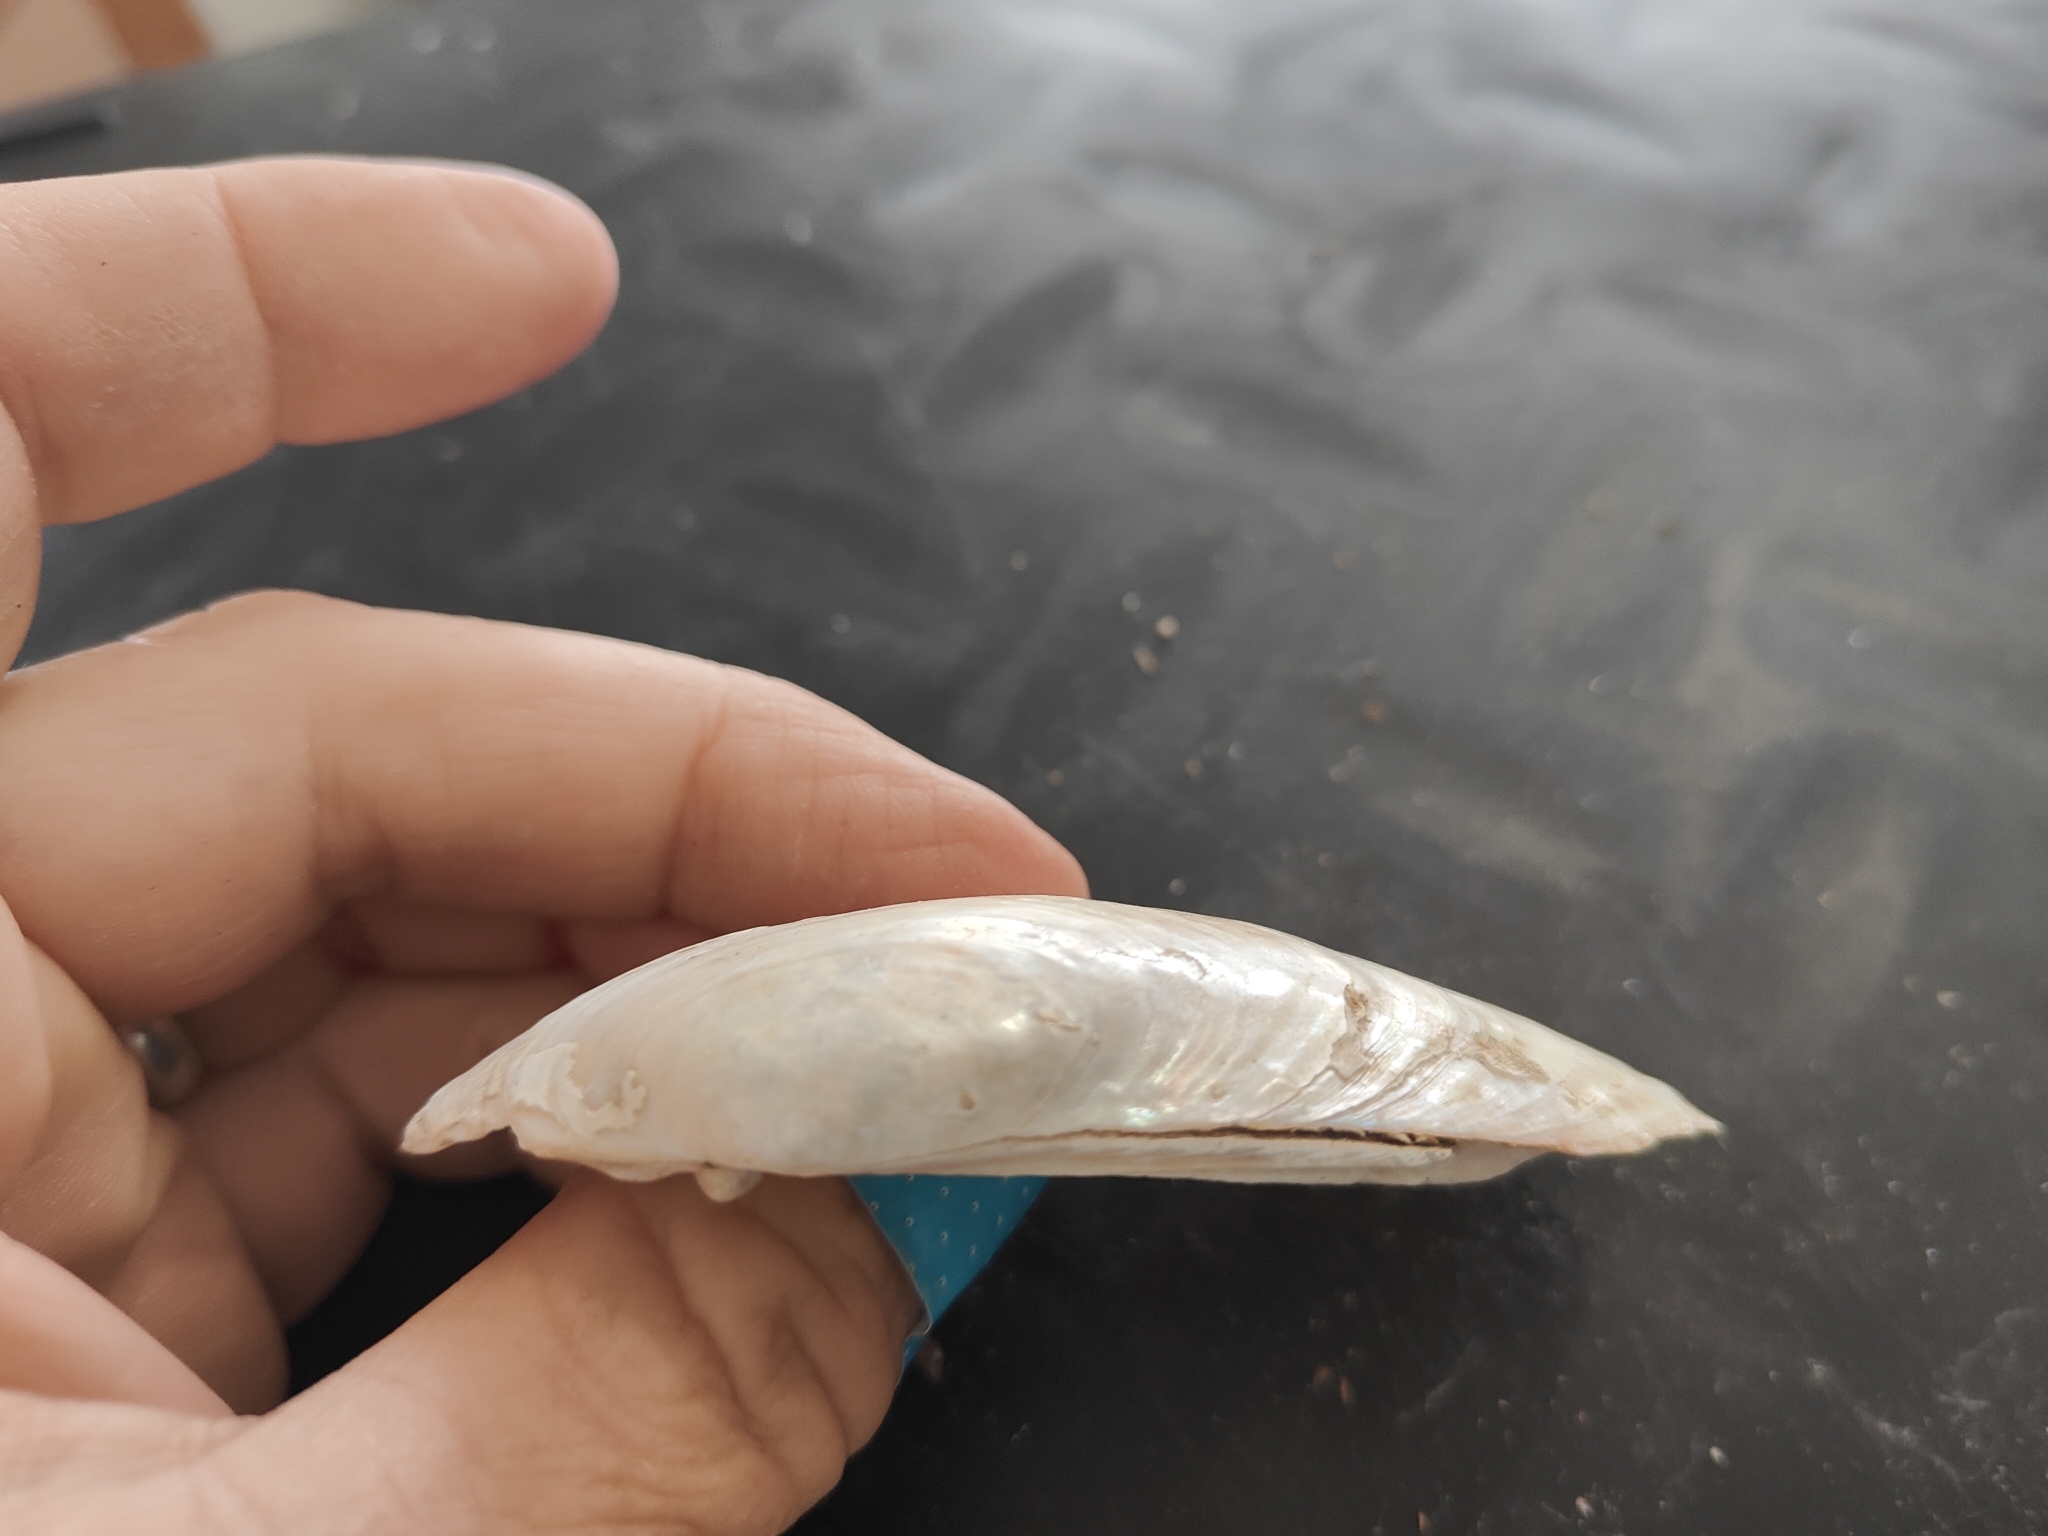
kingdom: Animalia
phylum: Mollusca
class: Bivalvia
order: Unionida
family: Unionidae
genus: Lampsilis
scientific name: Lampsilis siliquoidea
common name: Fatmucket
